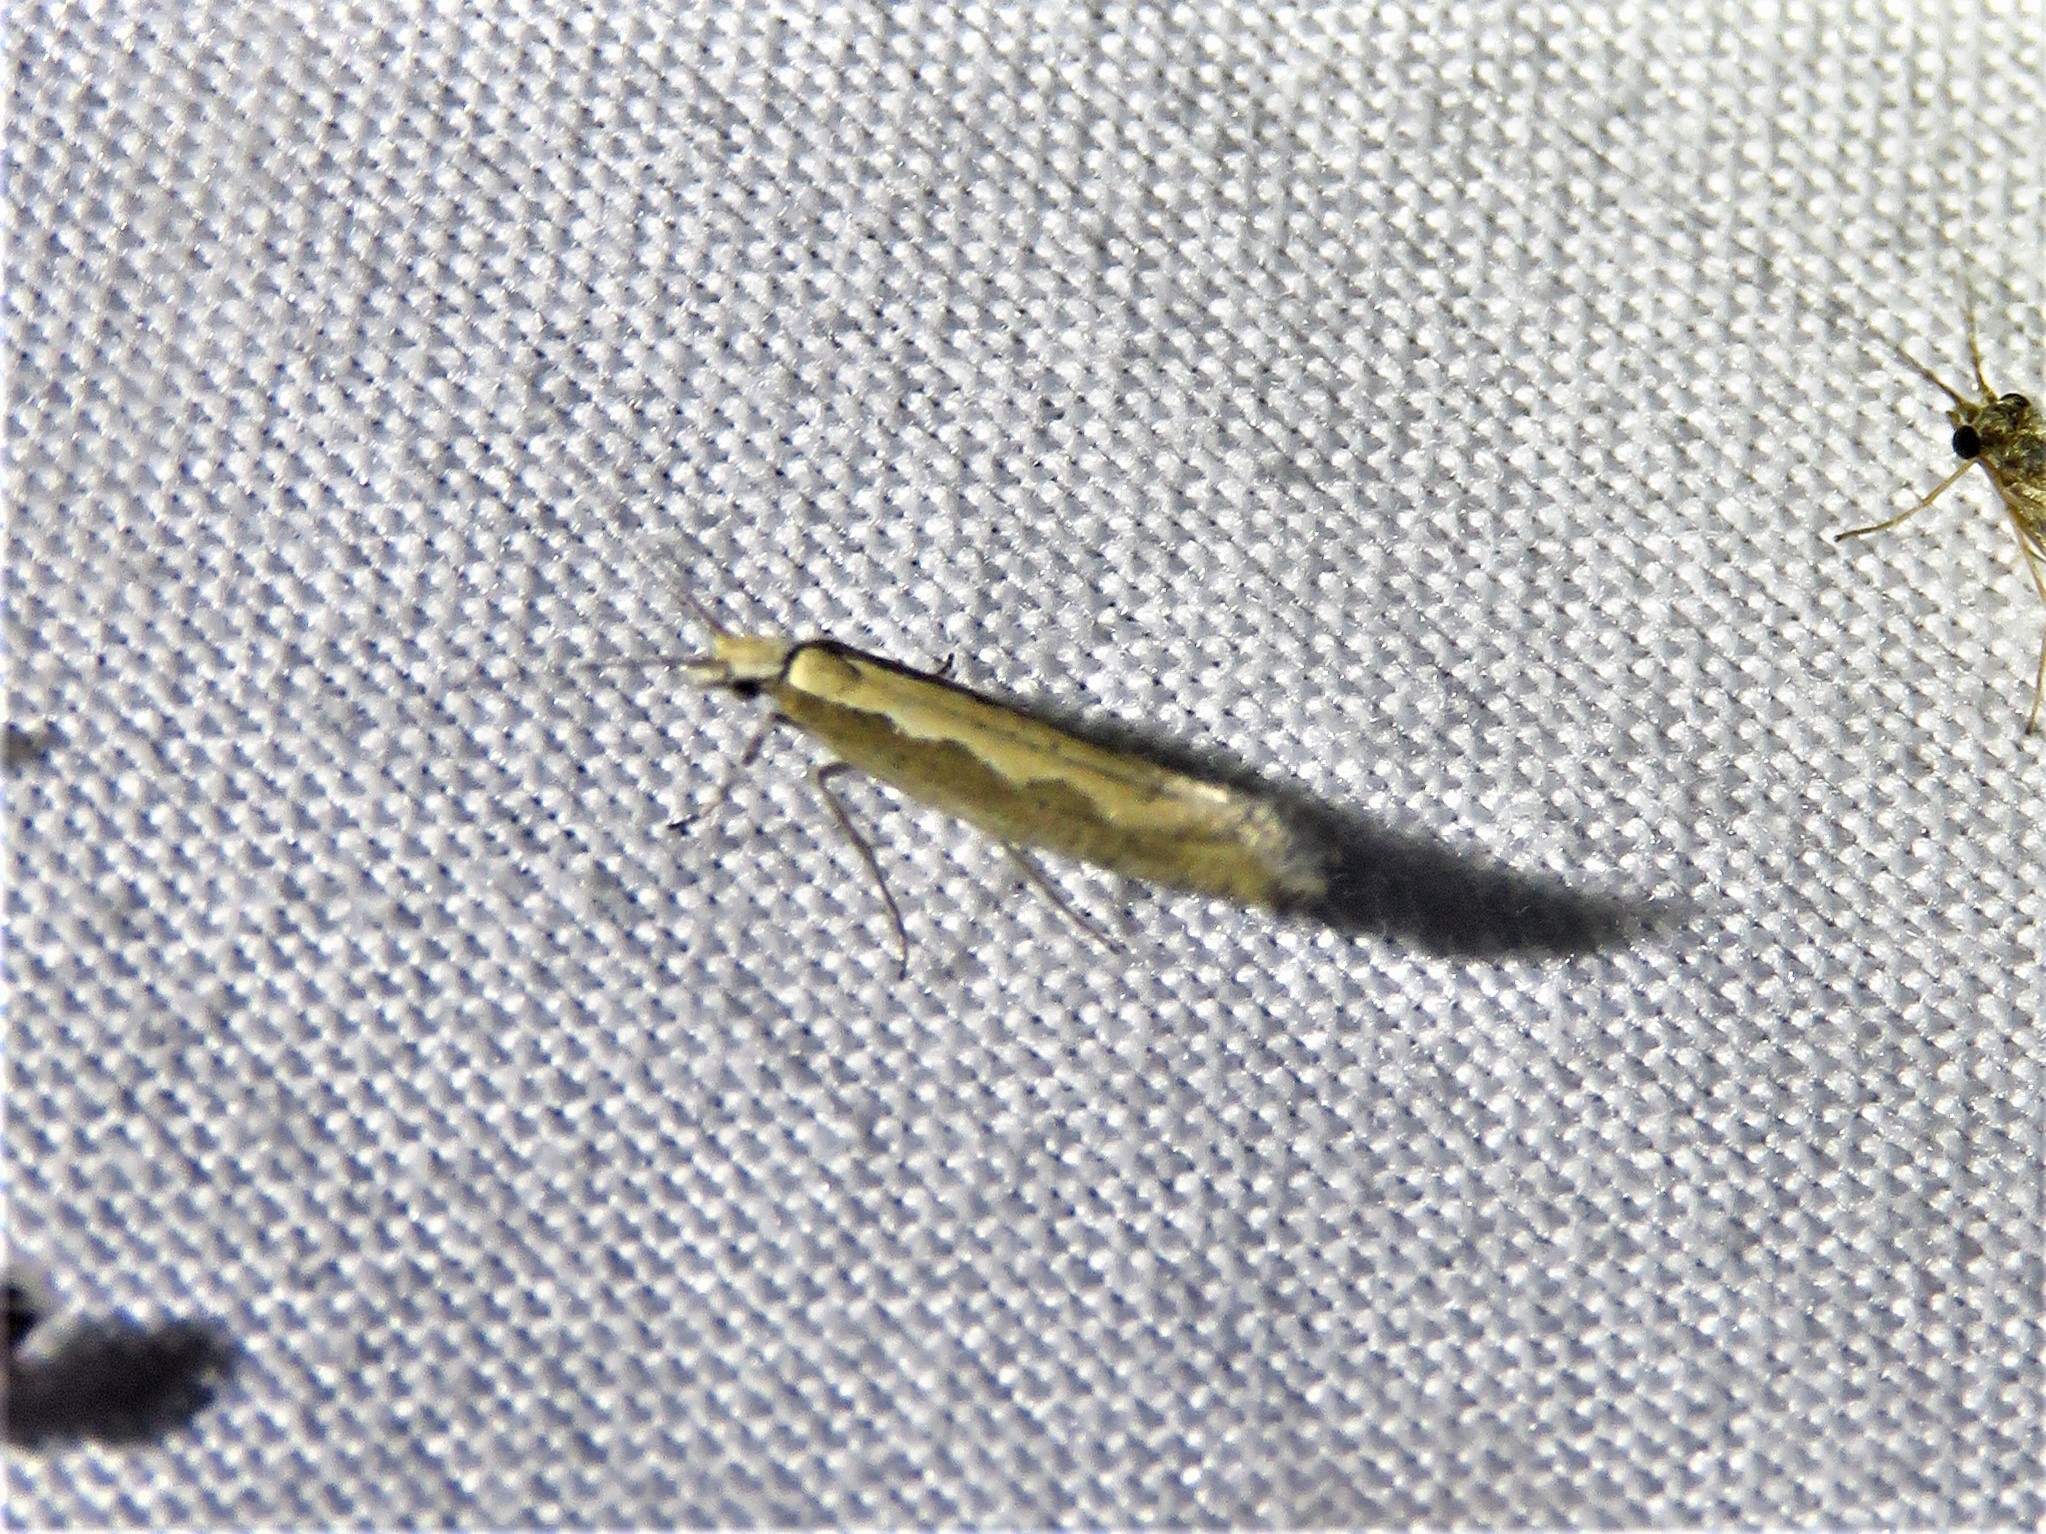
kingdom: Animalia
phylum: Arthropoda
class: Insecta
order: Lepidoptera
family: Plutellidae
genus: Plutella
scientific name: Plutella xylostella
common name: Diamond-back moth
